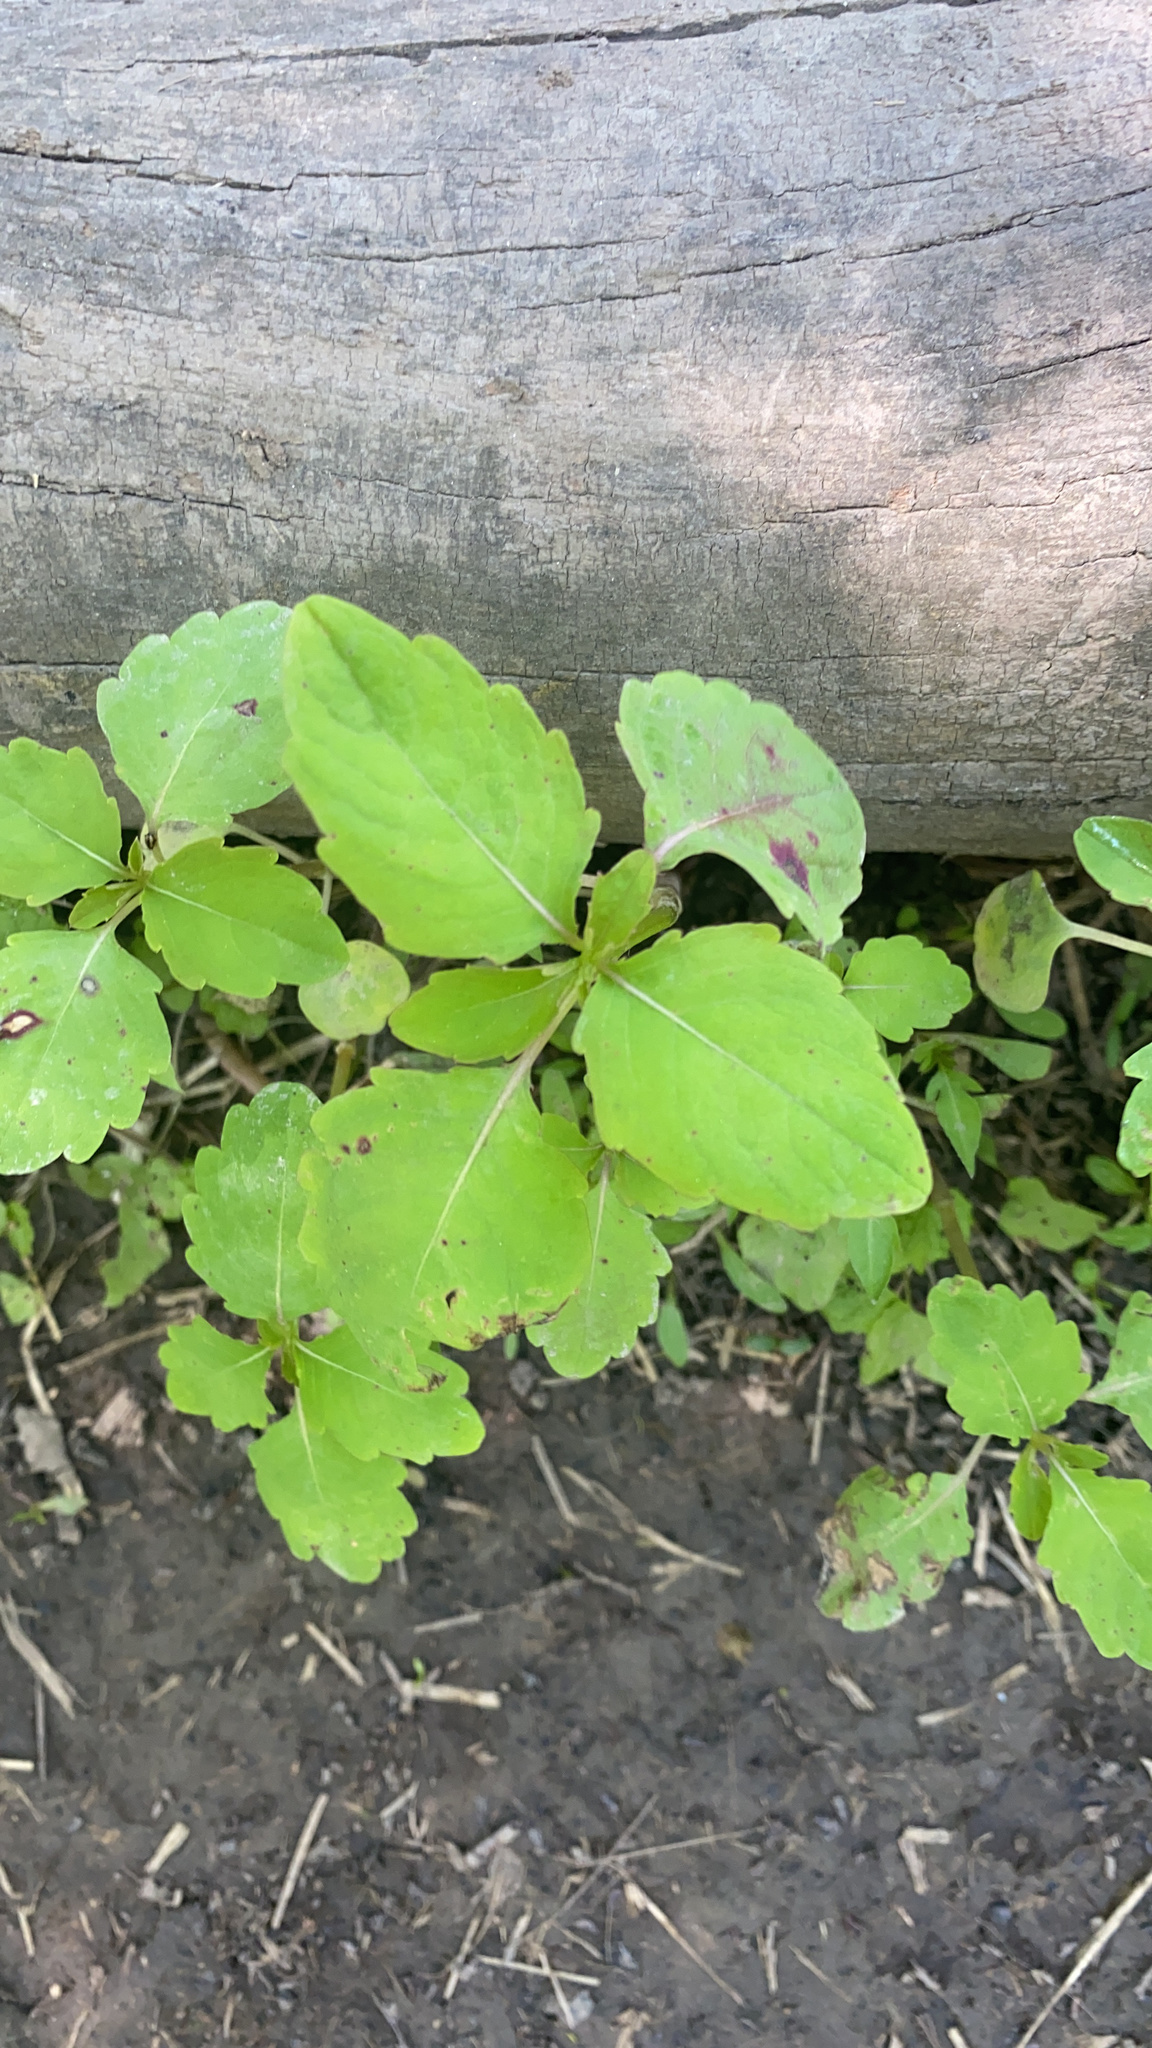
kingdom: Plantae
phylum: Tracheophyta
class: Magnoliopsida
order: Ericales
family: Balsaminaceae
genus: Impatiens
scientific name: Impatiens capensis
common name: Orange balsam
